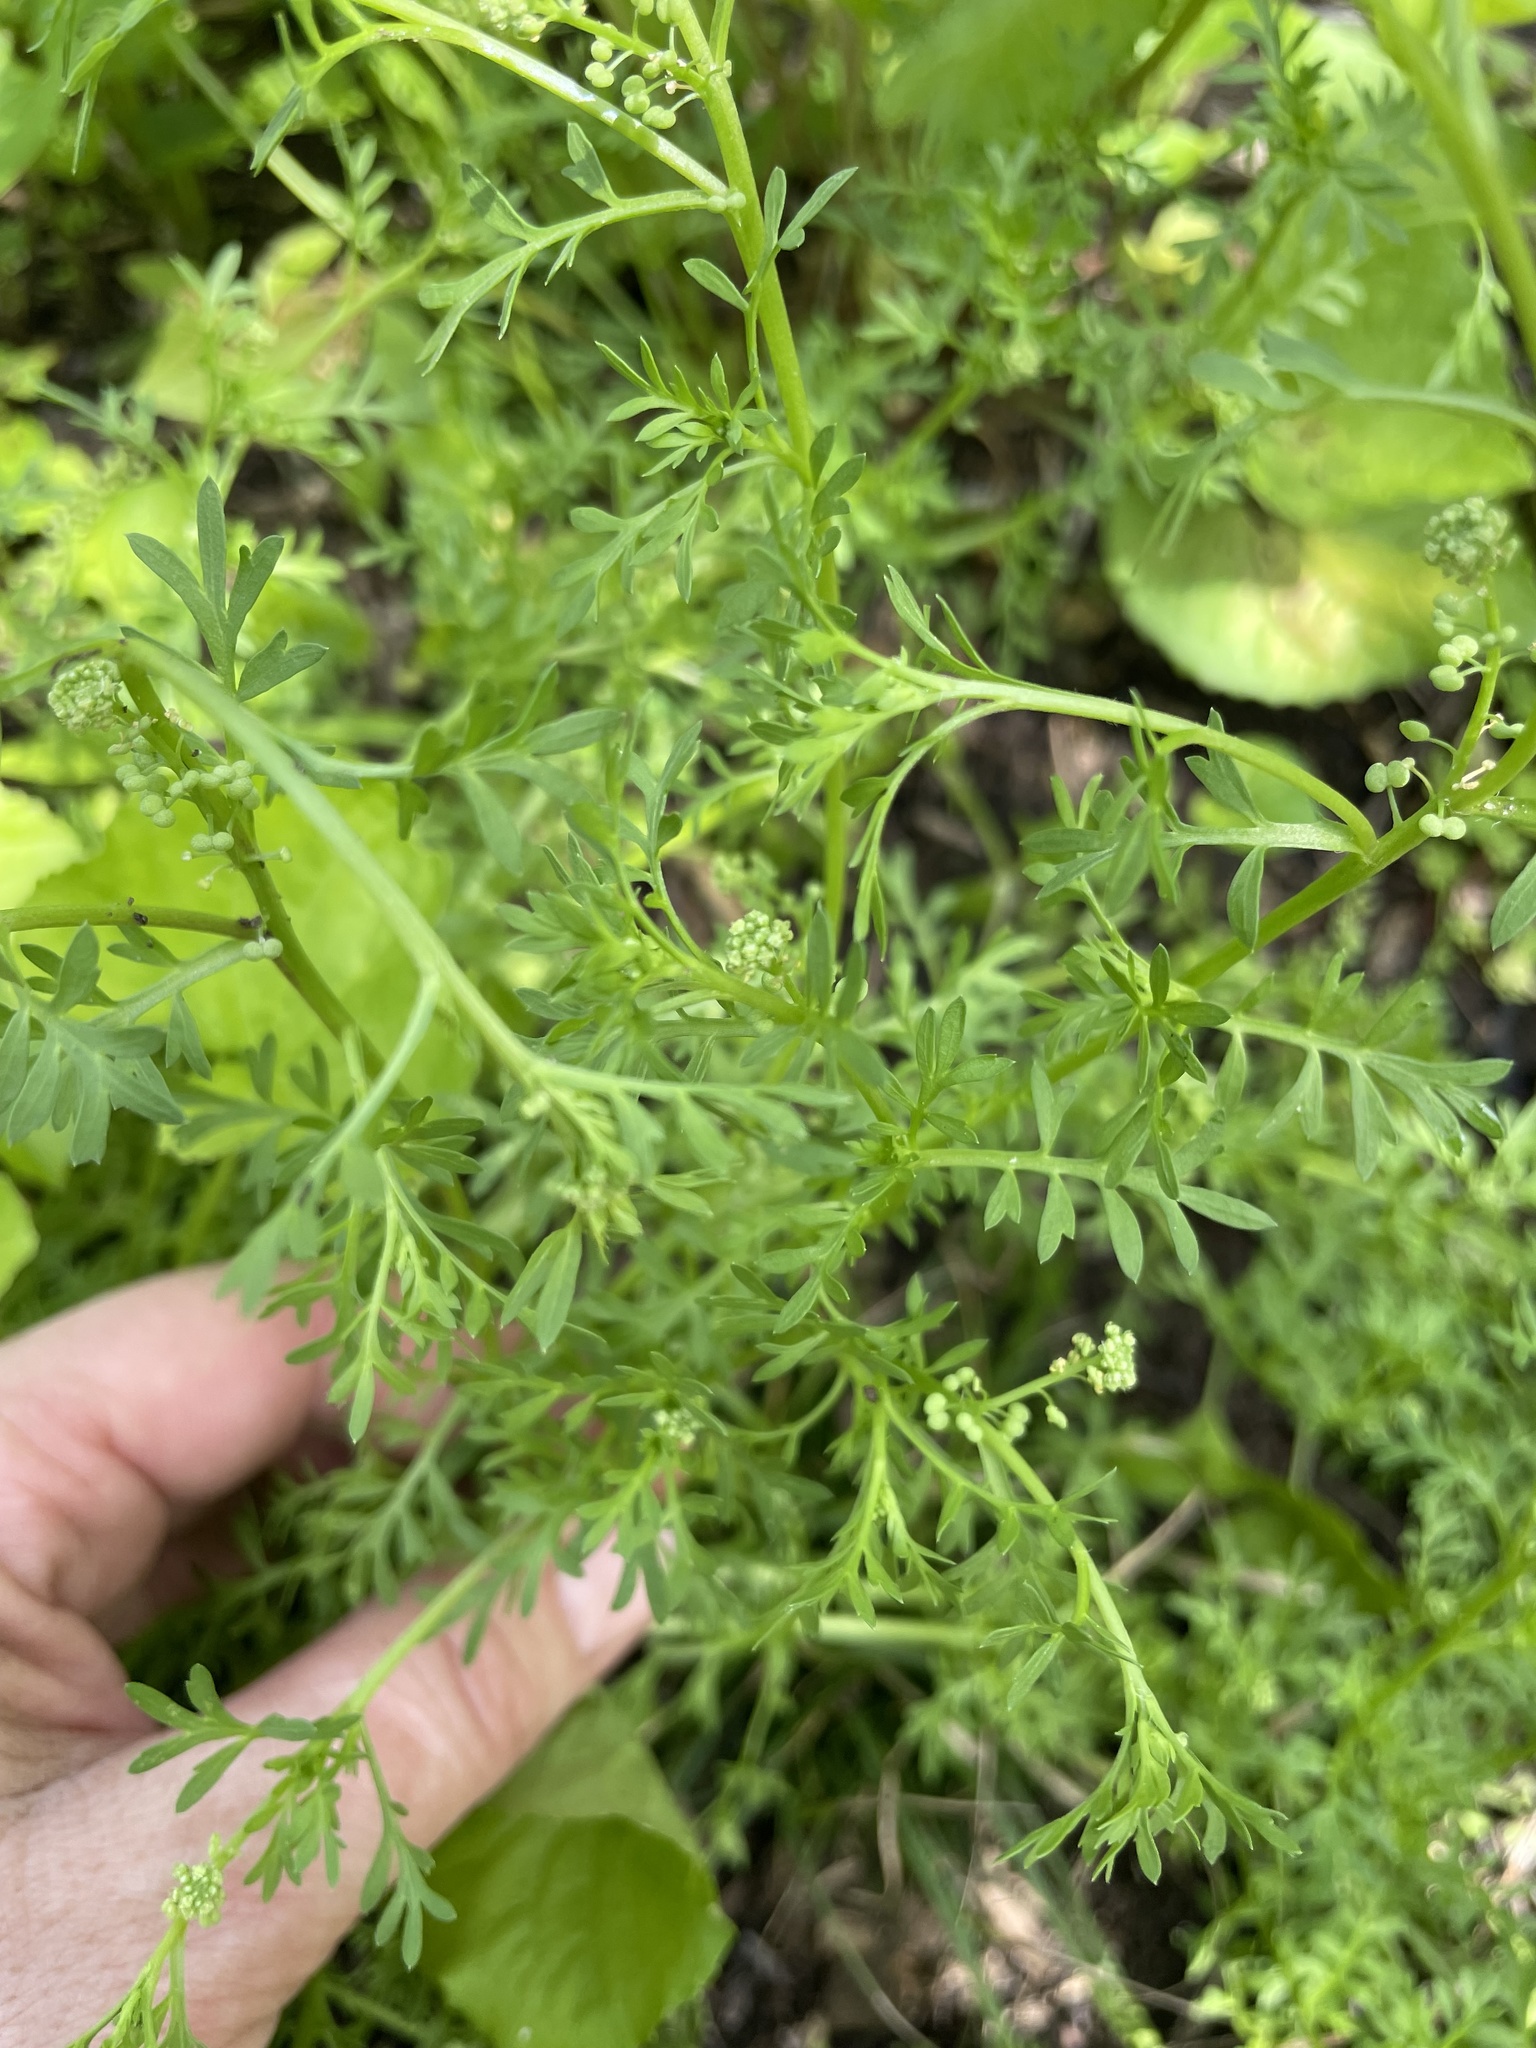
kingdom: Plantae
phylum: Tracheophyta
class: Magnoliopsida
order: Brassicales
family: Brassicaceae
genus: Lepidium
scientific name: Lepidium didymum
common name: Lesser swinecress
